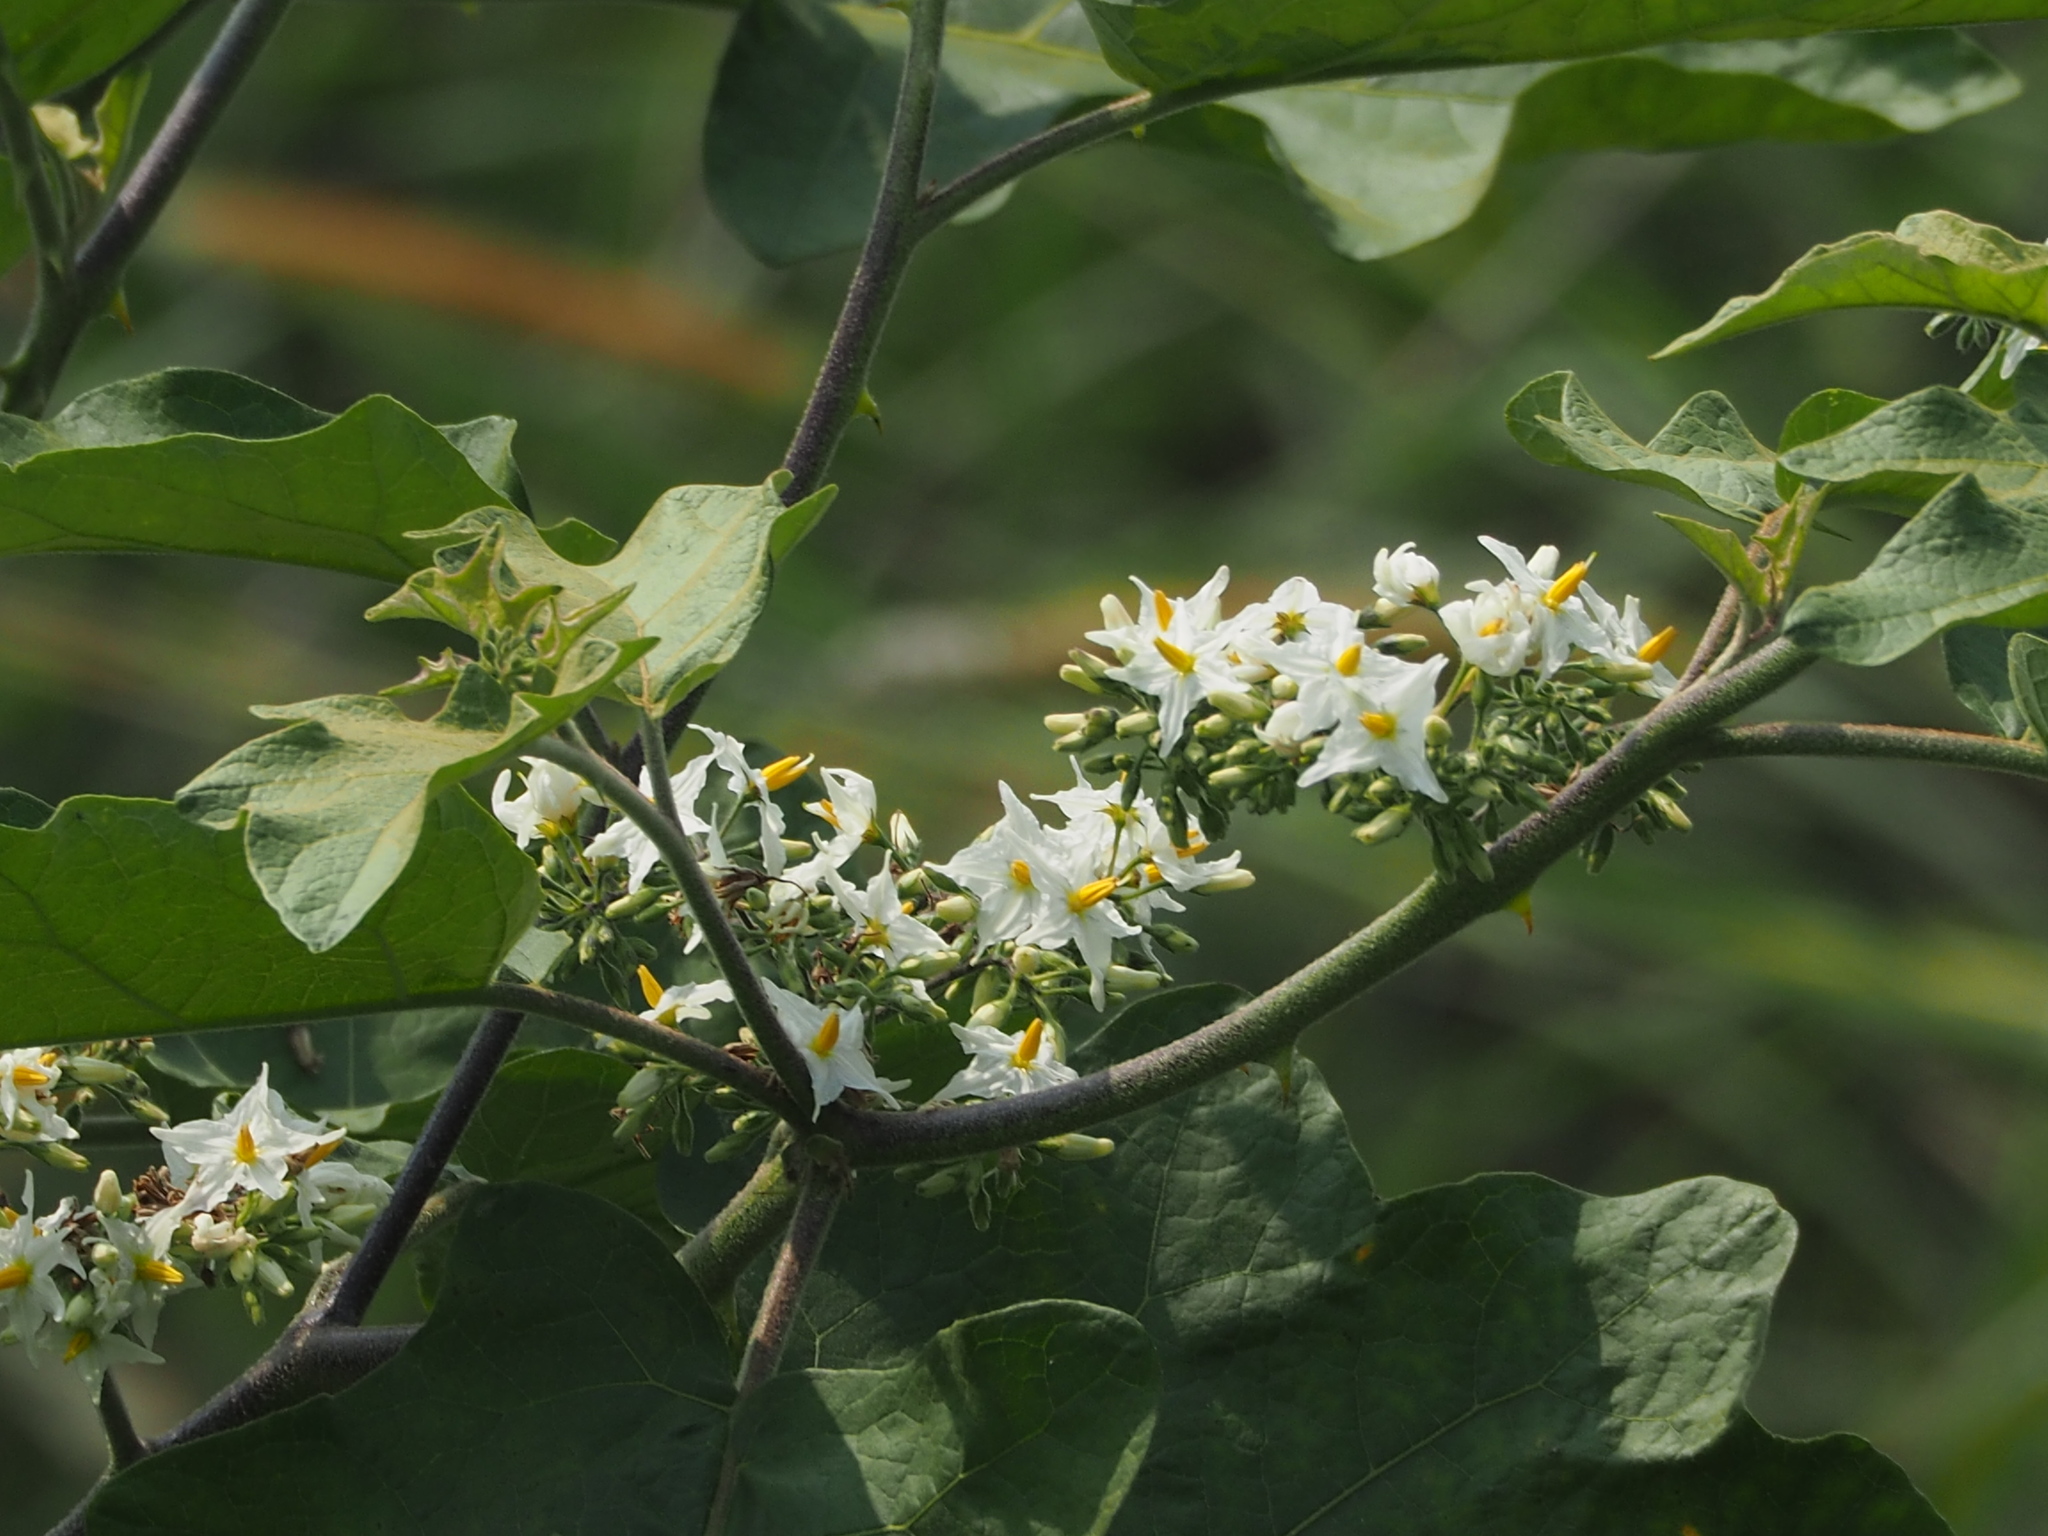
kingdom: Plantae
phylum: Tracheophyta
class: Magnoliopsida
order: Solanales
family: Solanaceae
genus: Solanum
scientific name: Solanum torvum
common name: Turkey berry
